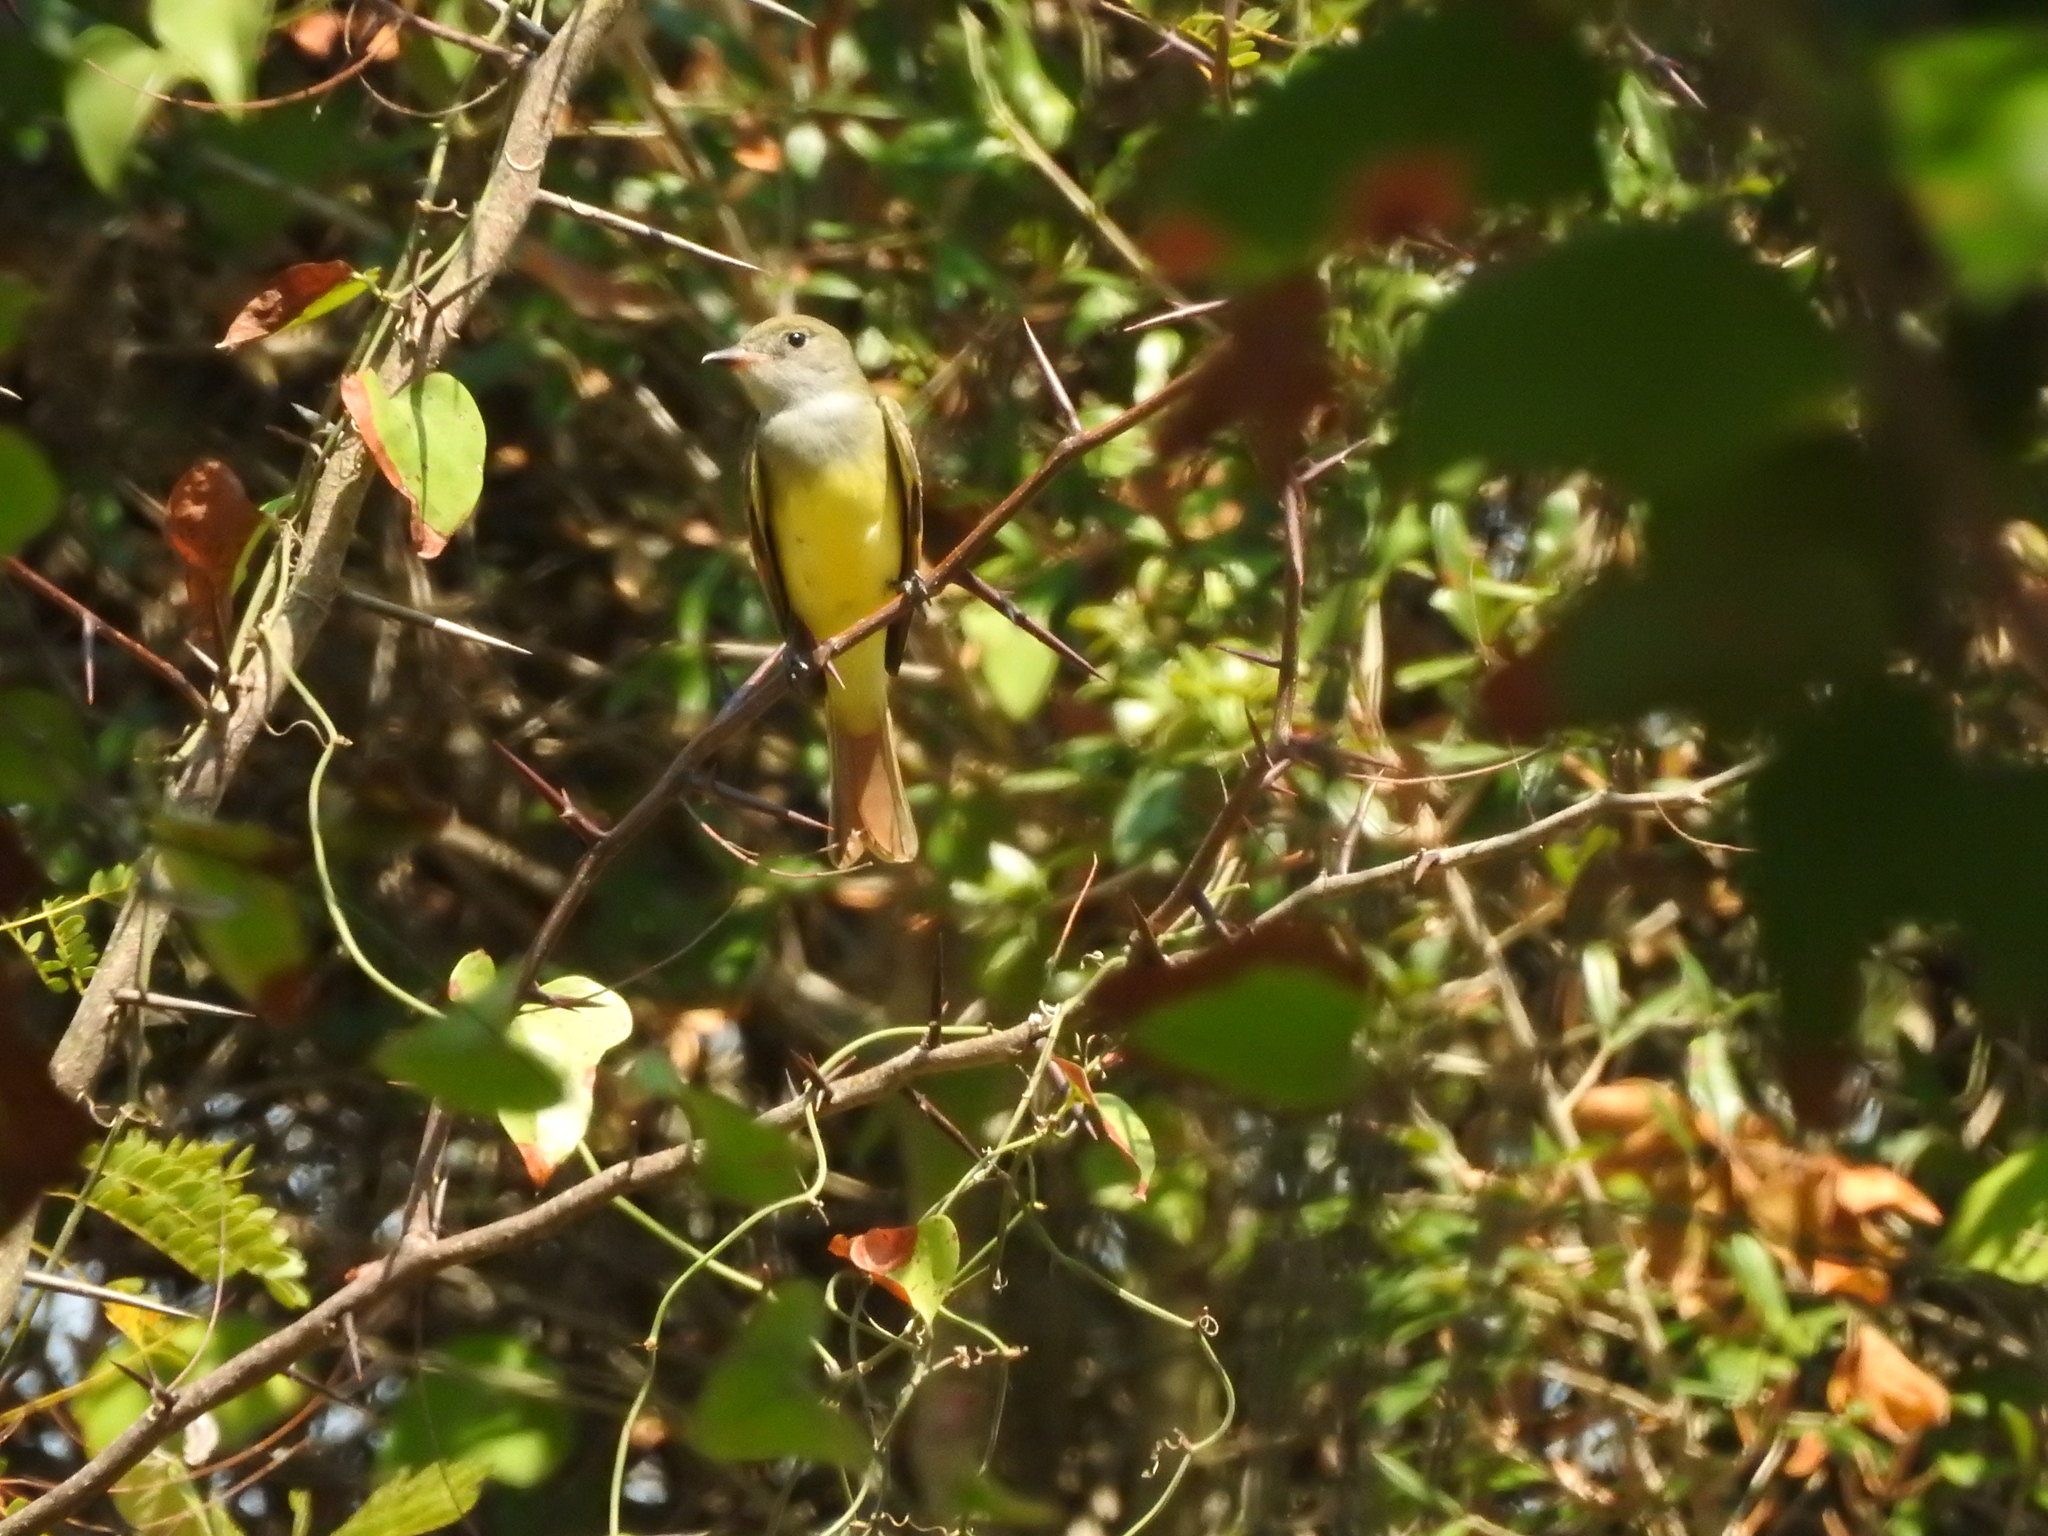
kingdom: Animalia
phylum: Chordata
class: Aves
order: Passeriformes
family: Tyrannidae
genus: Myiarchus
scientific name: Myiarchus crinitus
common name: Great crested flycatcher
